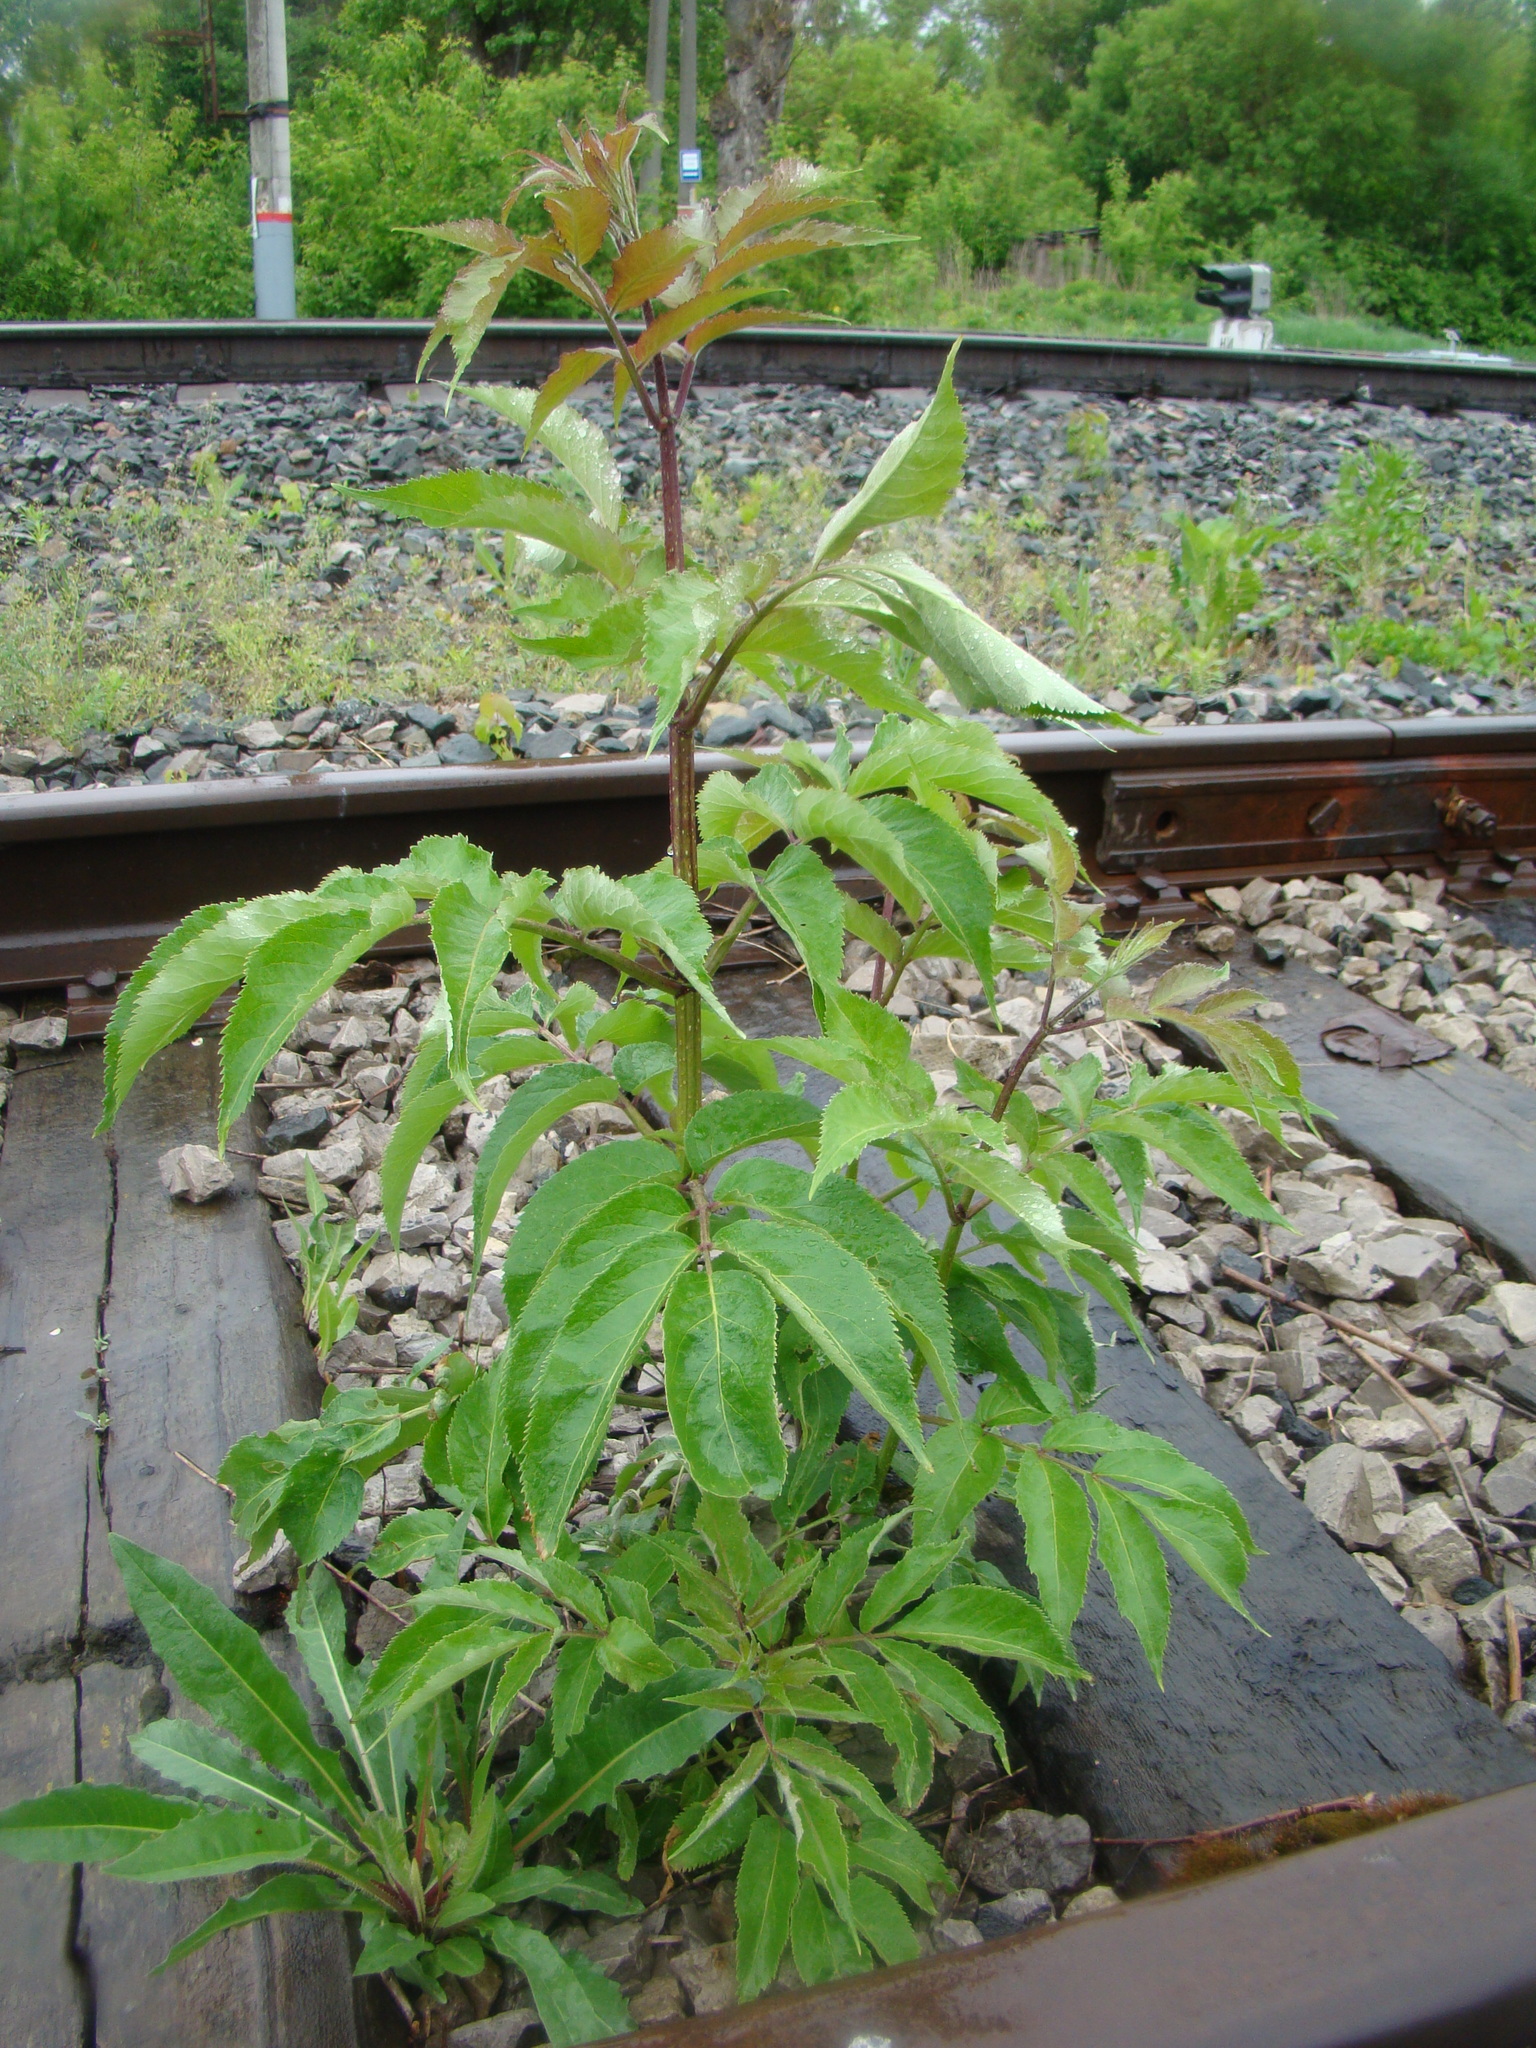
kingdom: Plantae
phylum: Tracheophyta
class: Magnoliopsida
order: Dipsacales
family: Viburnaceae
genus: Sambucus
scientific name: Sambucus racemosa
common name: Red-berried elder
